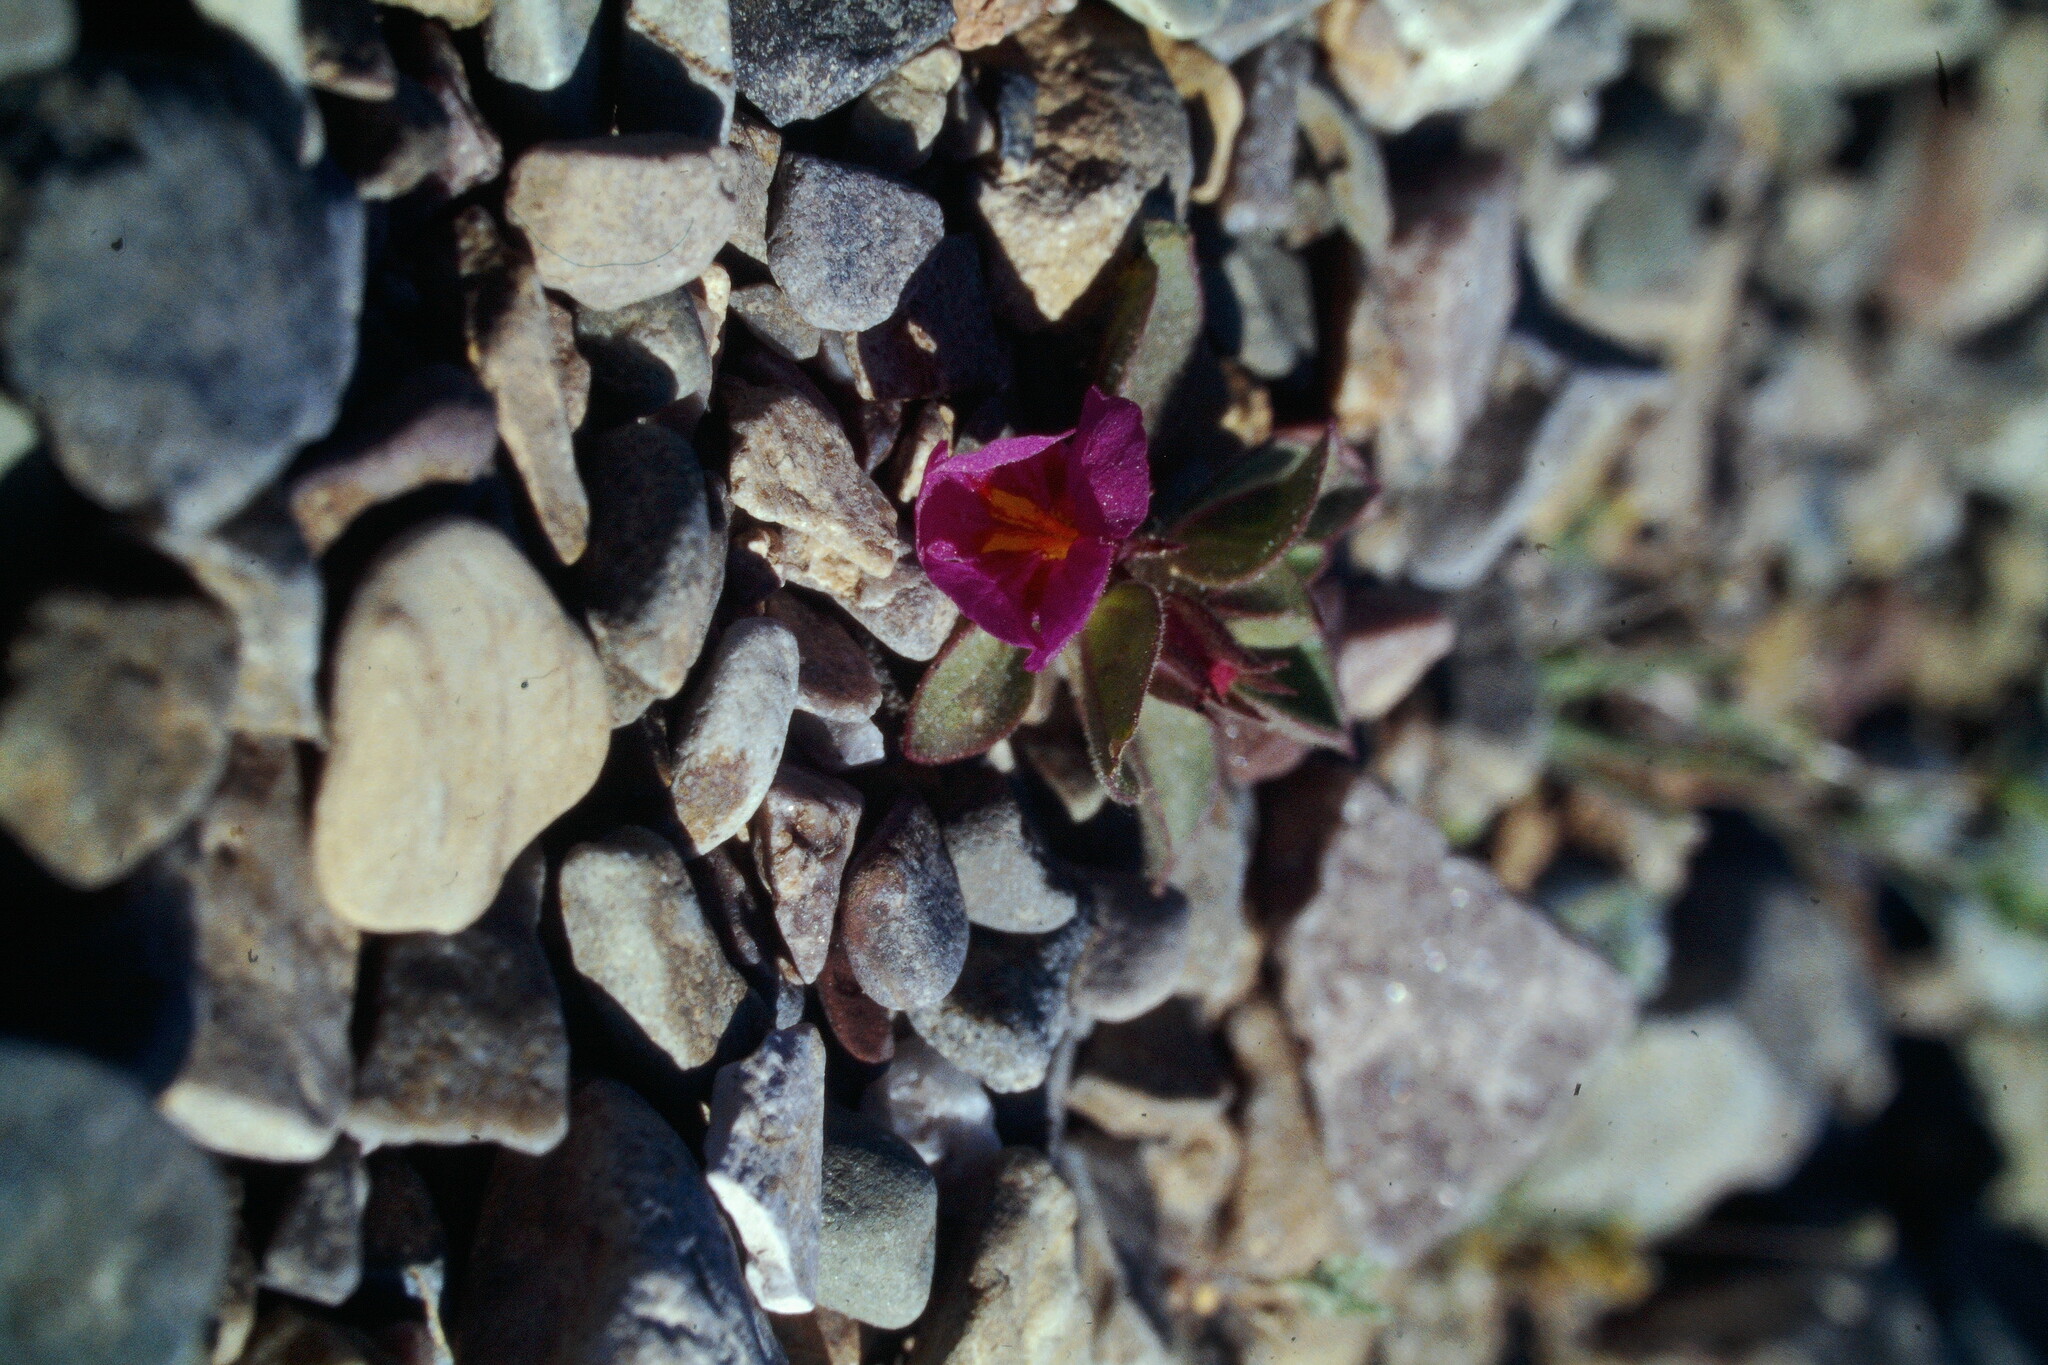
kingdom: Plantae
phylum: Tracheophyta
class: Magnoliopsida
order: Lamiales
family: Phrymaceae
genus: Diplacus
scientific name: Diplacus bigelovii
